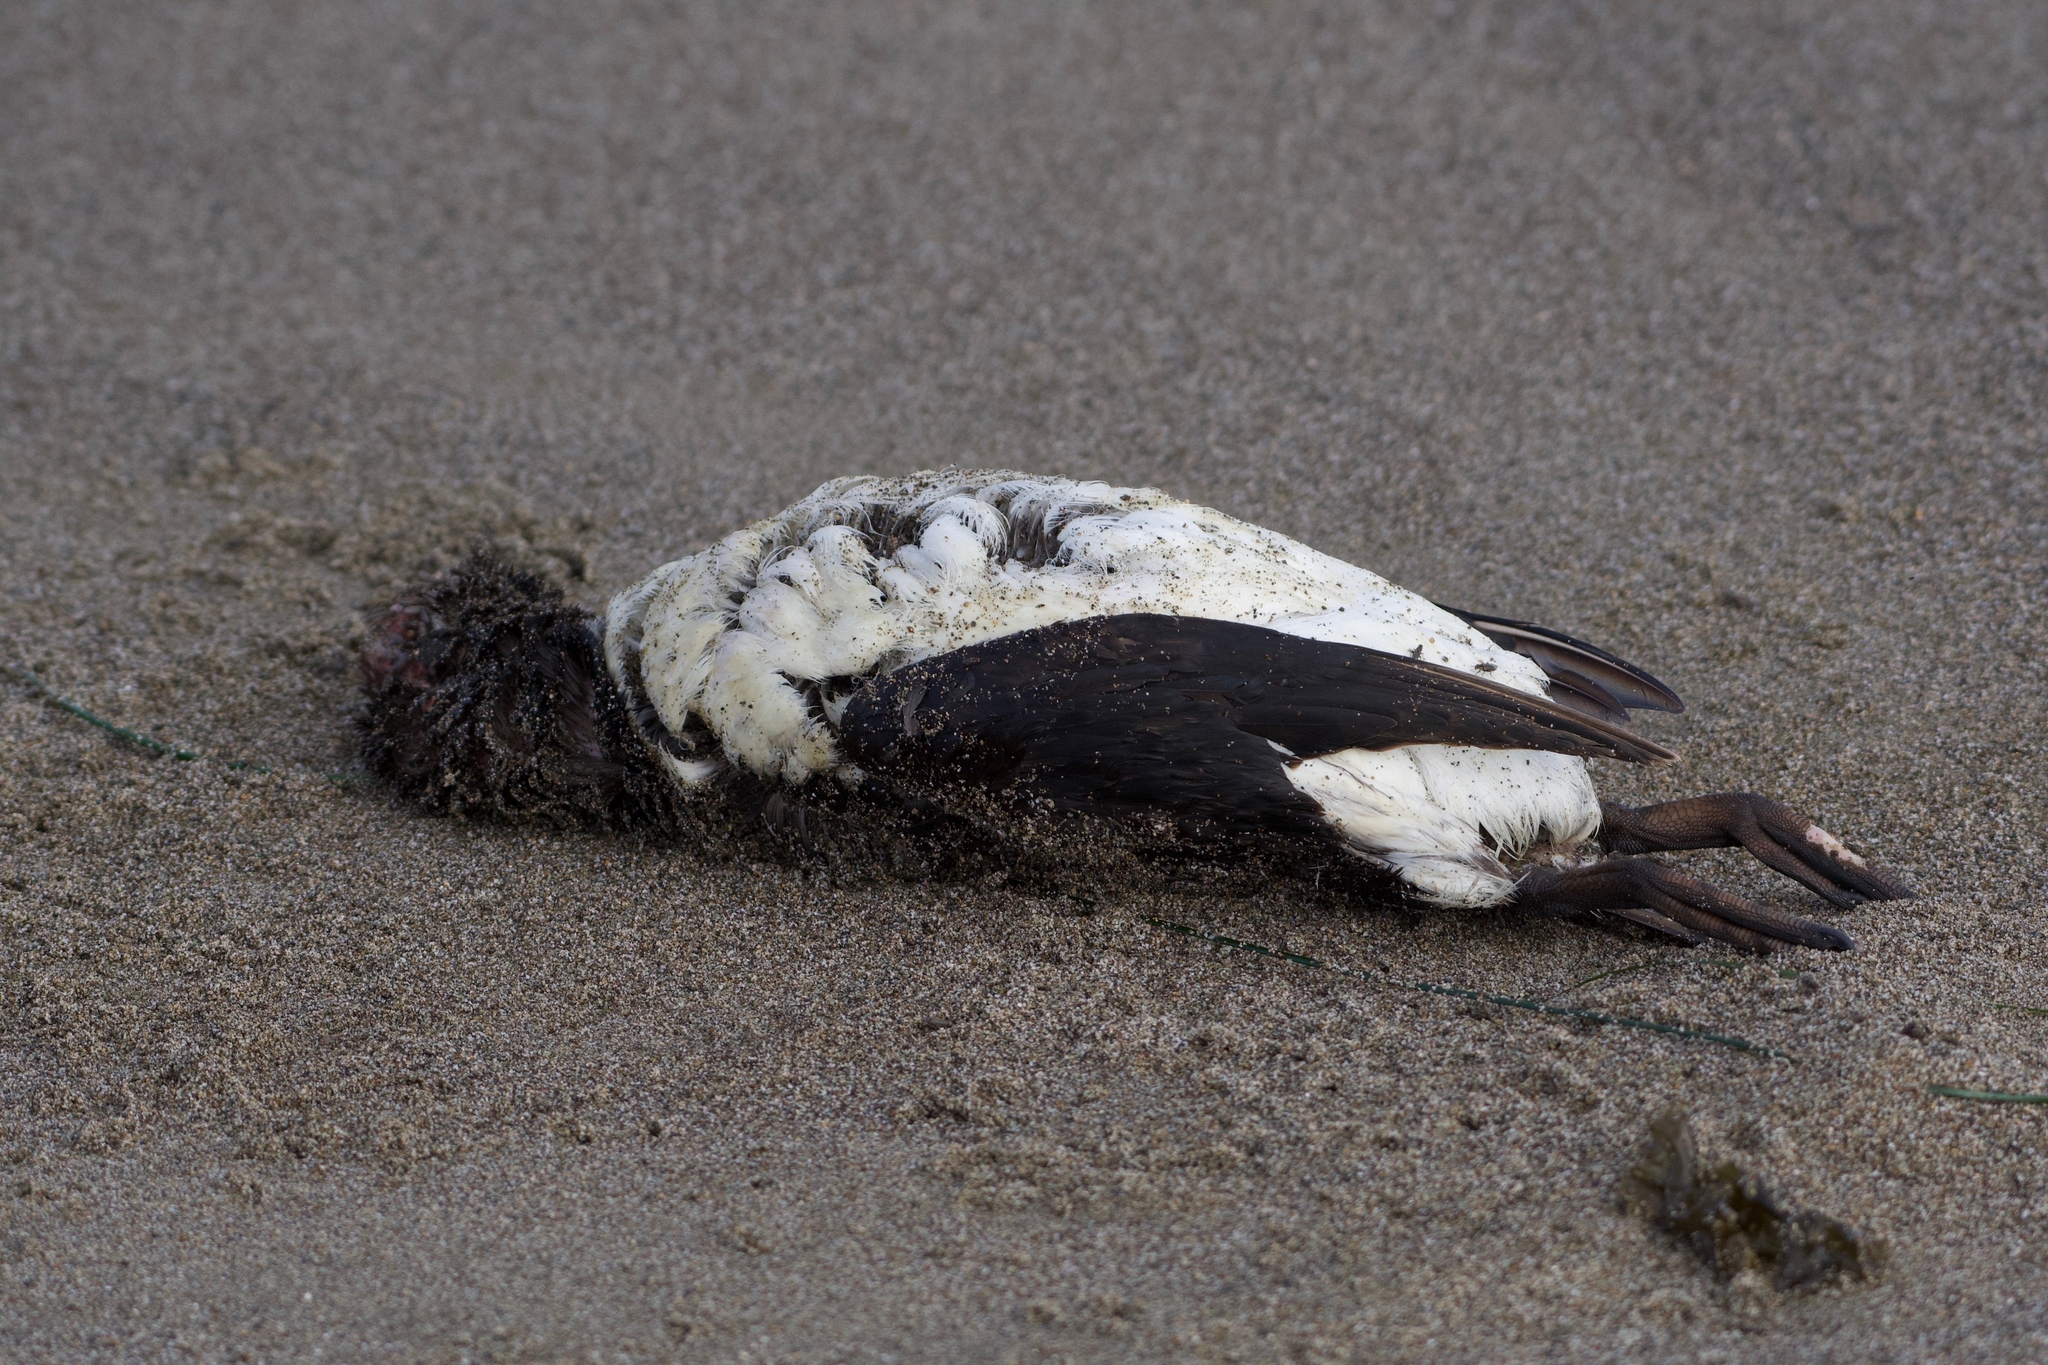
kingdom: Animalia
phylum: Chordata
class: Aves
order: Charadriiformes
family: Alcidae
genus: Uria
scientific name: Uria aalge
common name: Common murre
